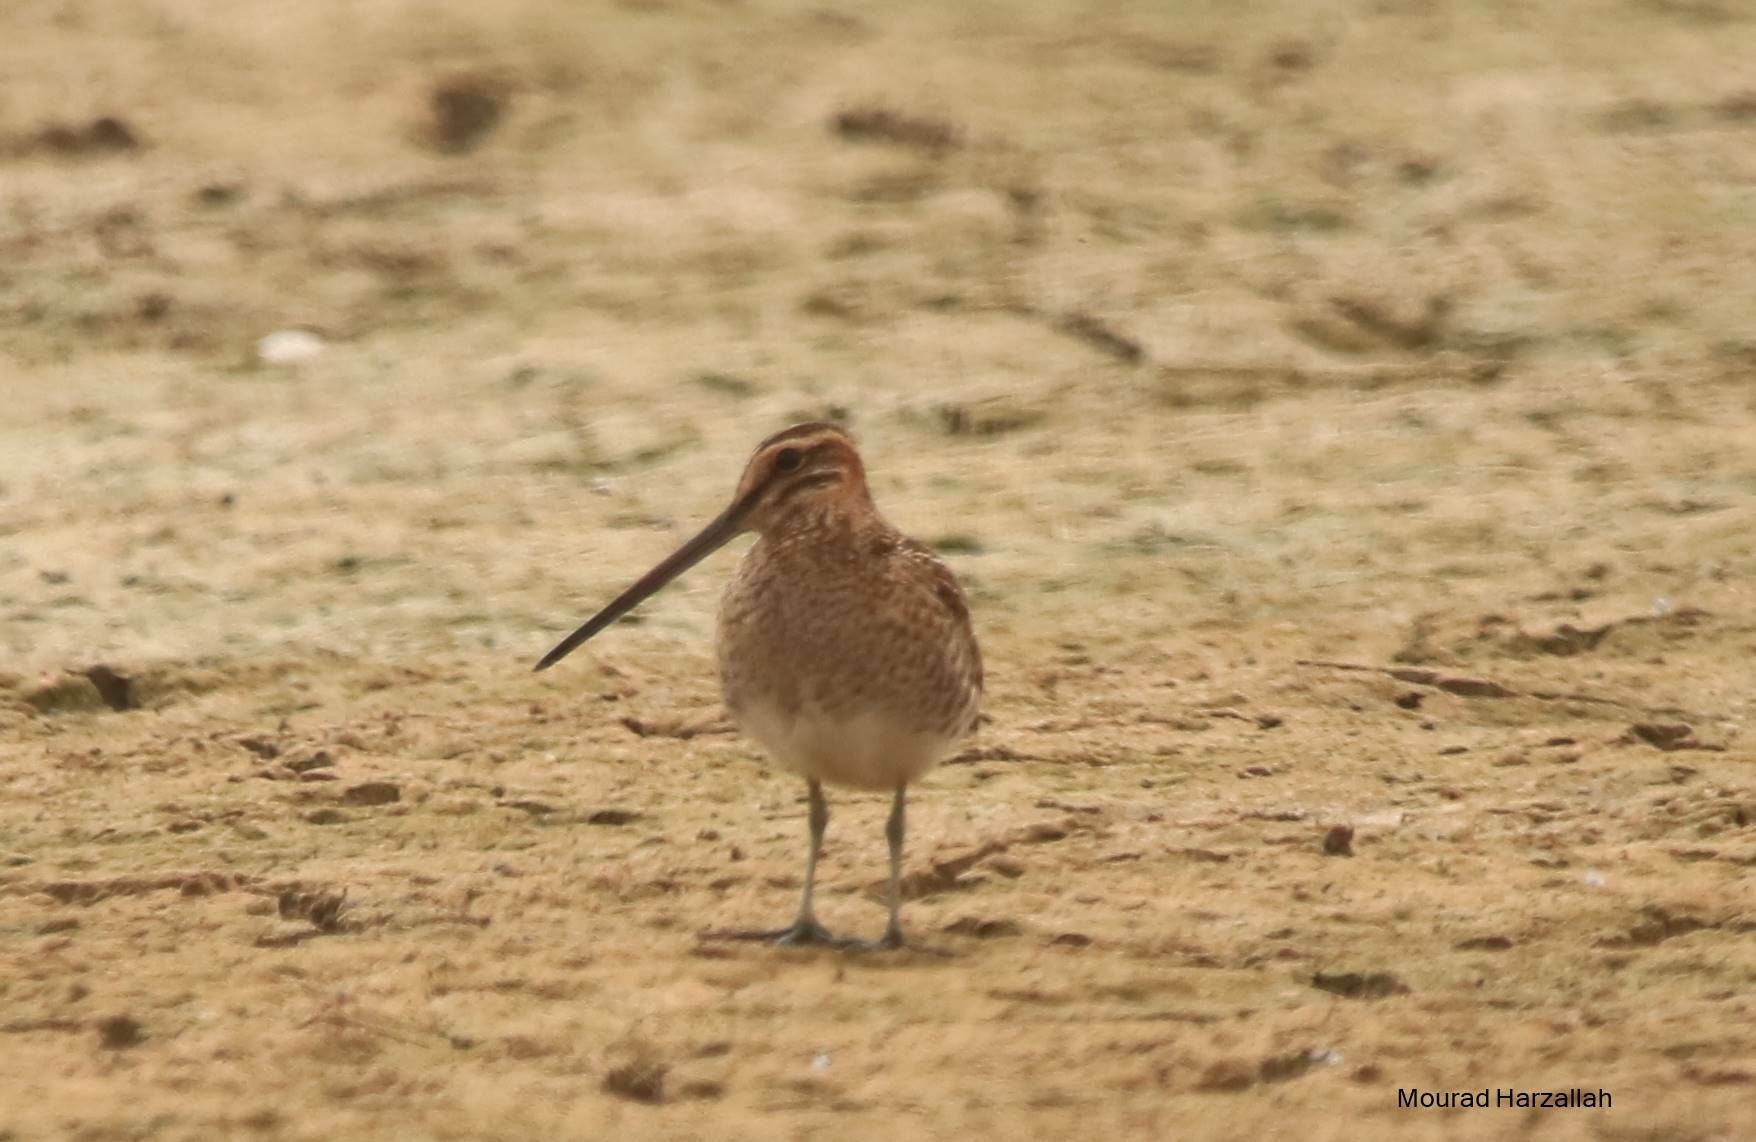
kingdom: Animalia
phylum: Chordata
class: Aves
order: Charadriiformes
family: Scolopacidae
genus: Gallinago
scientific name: Gallinago gallinago
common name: Common snipe
